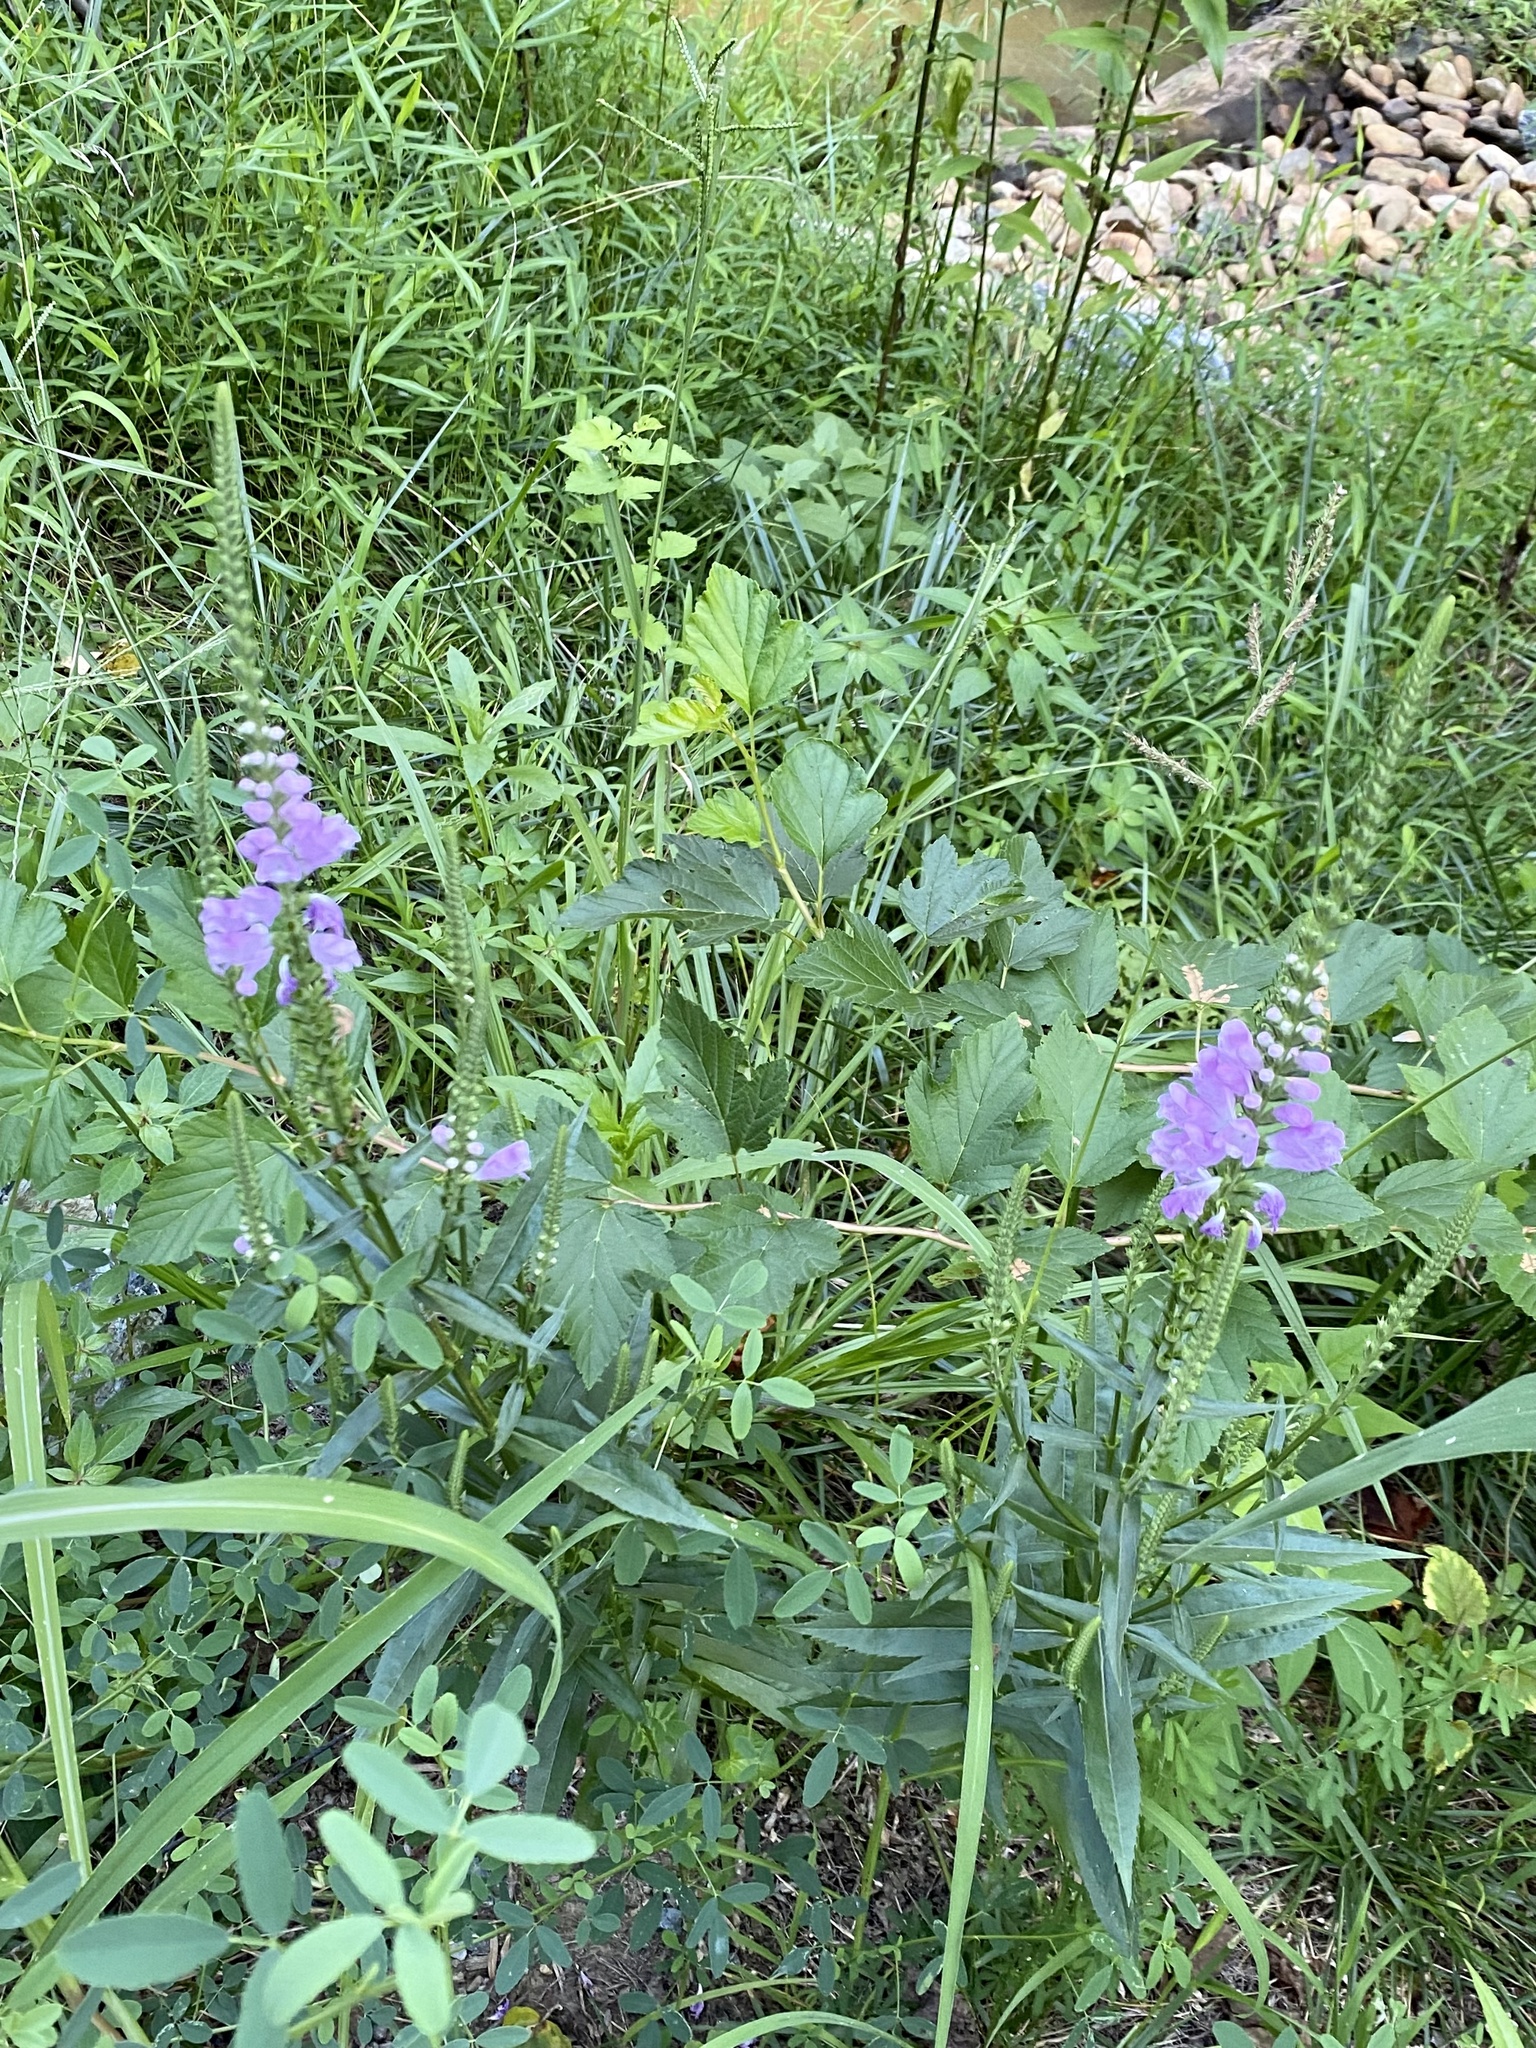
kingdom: Plantae
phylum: Tracheophyta
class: Magnoliopsida
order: Lamiales
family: Lamiaceae
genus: Physostegia
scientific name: Physostegia virginiana
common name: Obedient-plant
